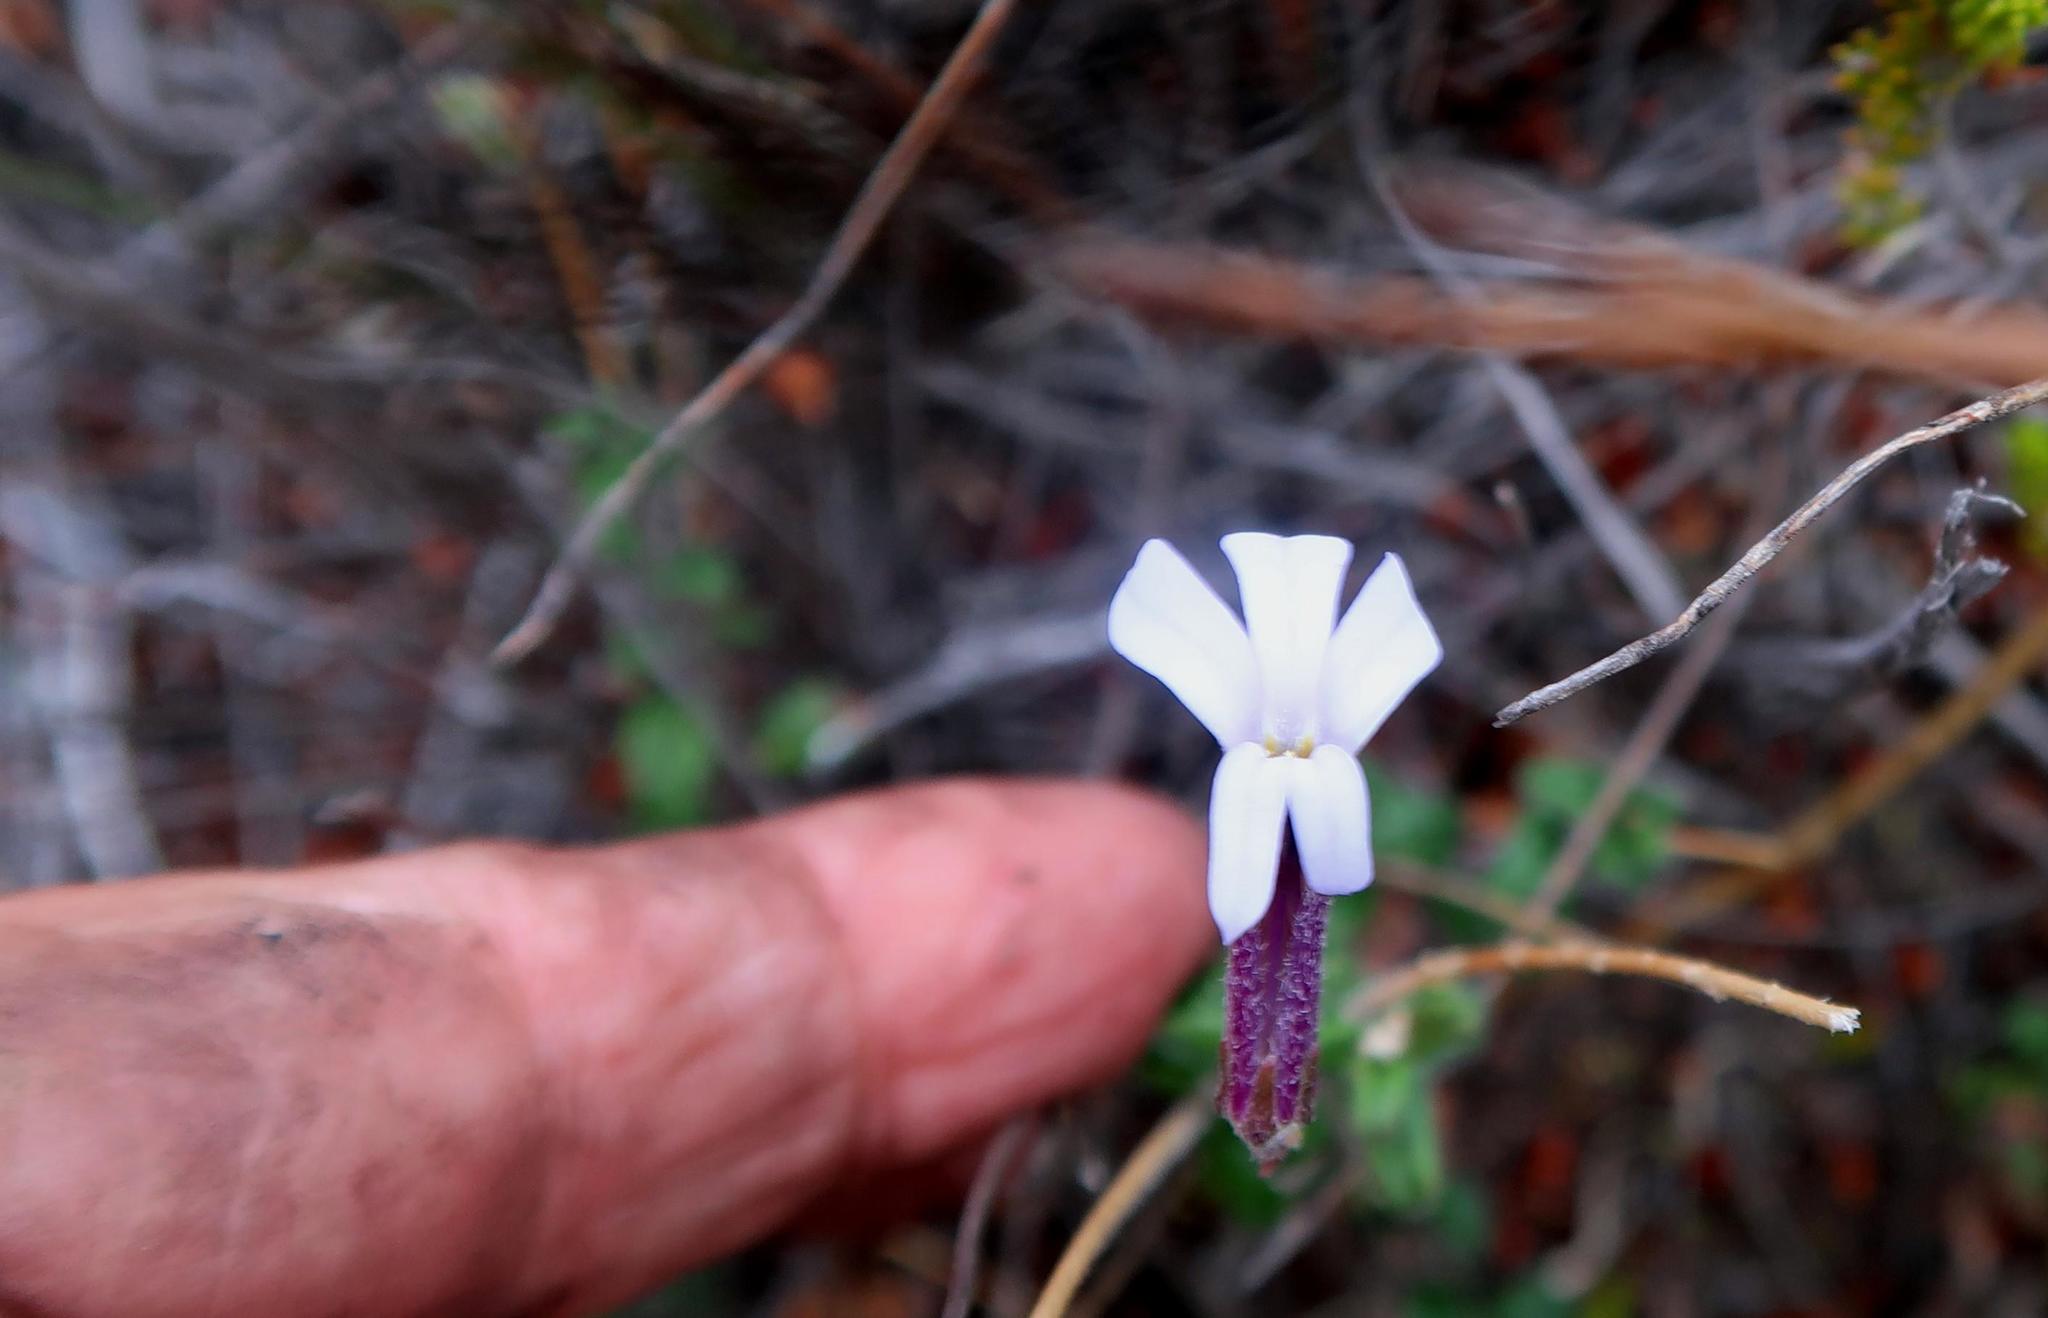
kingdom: Plantae
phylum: Tracheophyta
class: Magnoliopsida
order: Asterales
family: Campanulaceae
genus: Lobelia
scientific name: Lobelia dichroma
